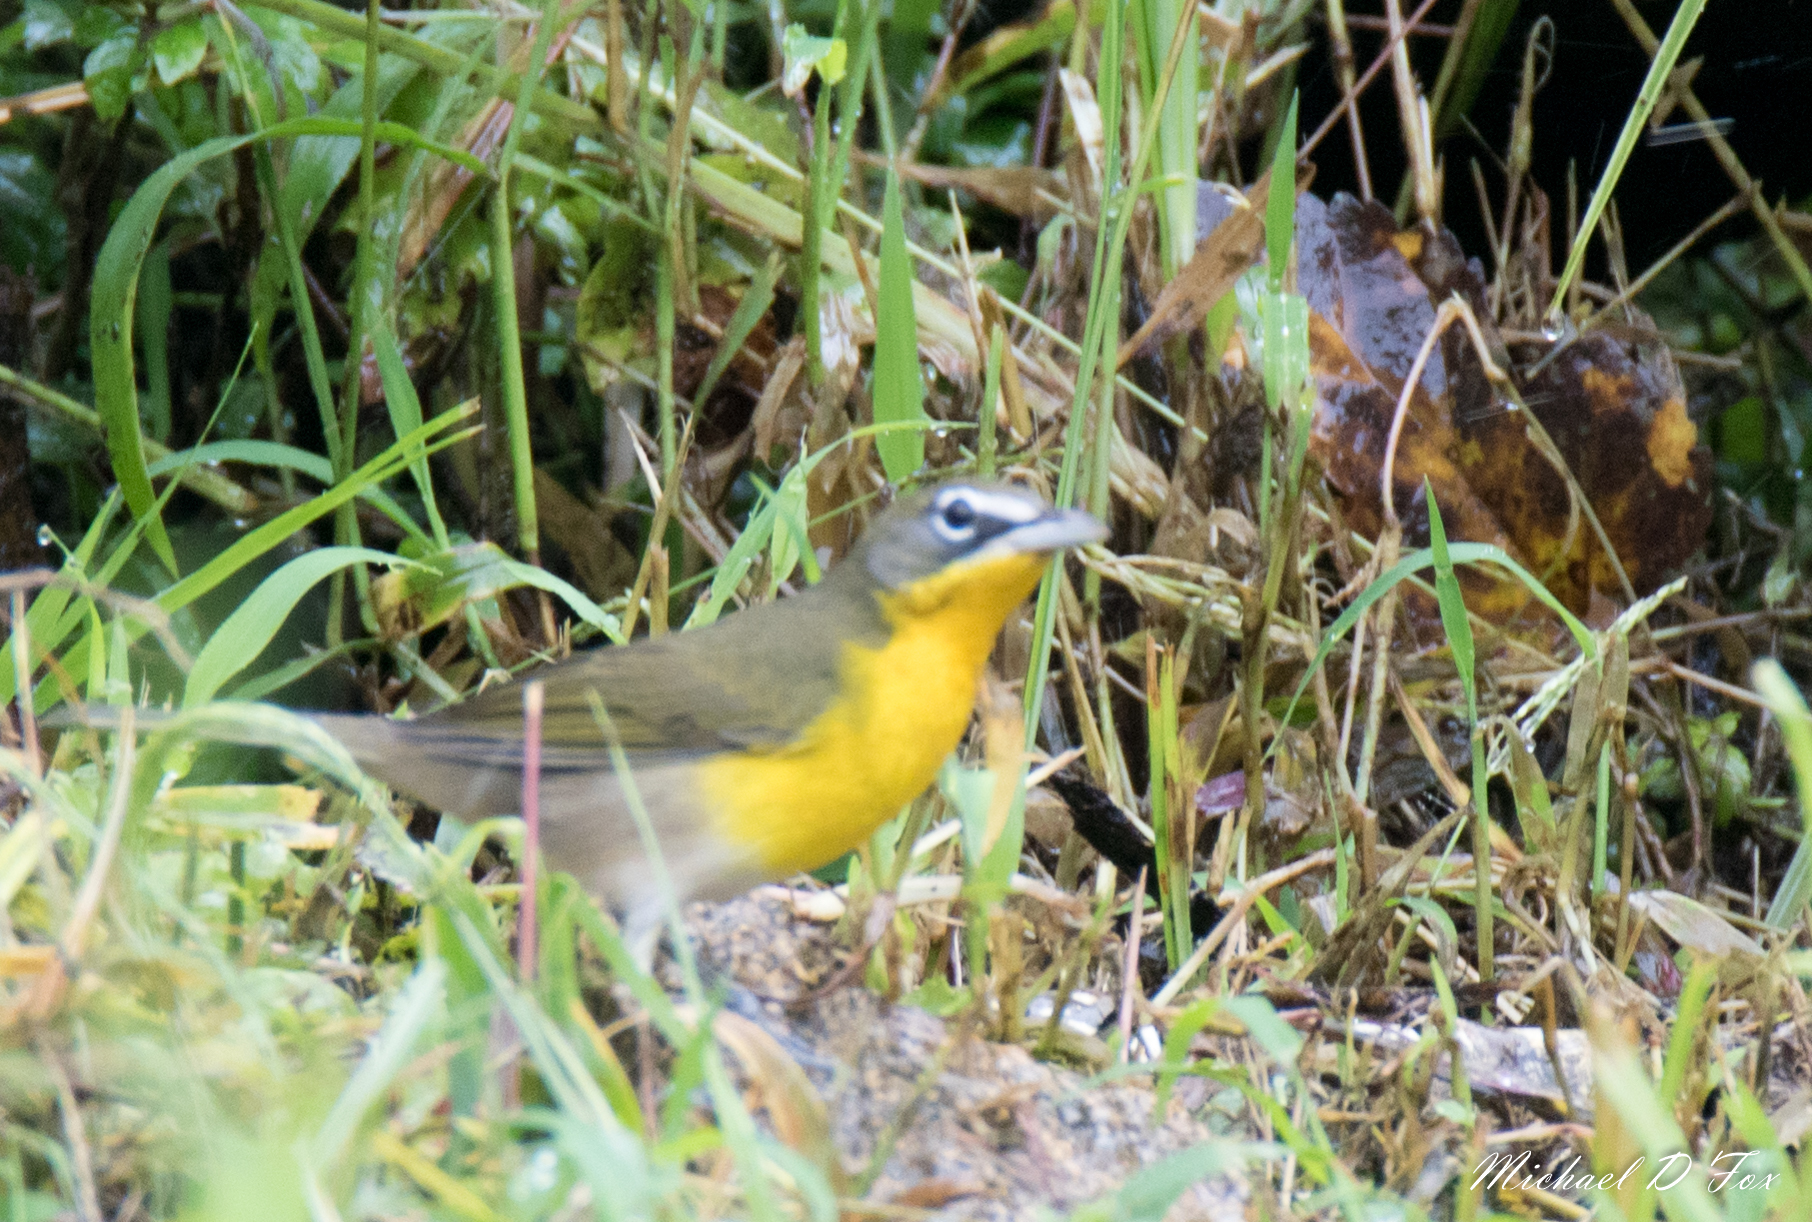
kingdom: Animalia
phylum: Chordata
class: Aves
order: Passeriformes
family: Parulidae
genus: Icteria
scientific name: Icteria virens
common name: Yellow-breasted chat
